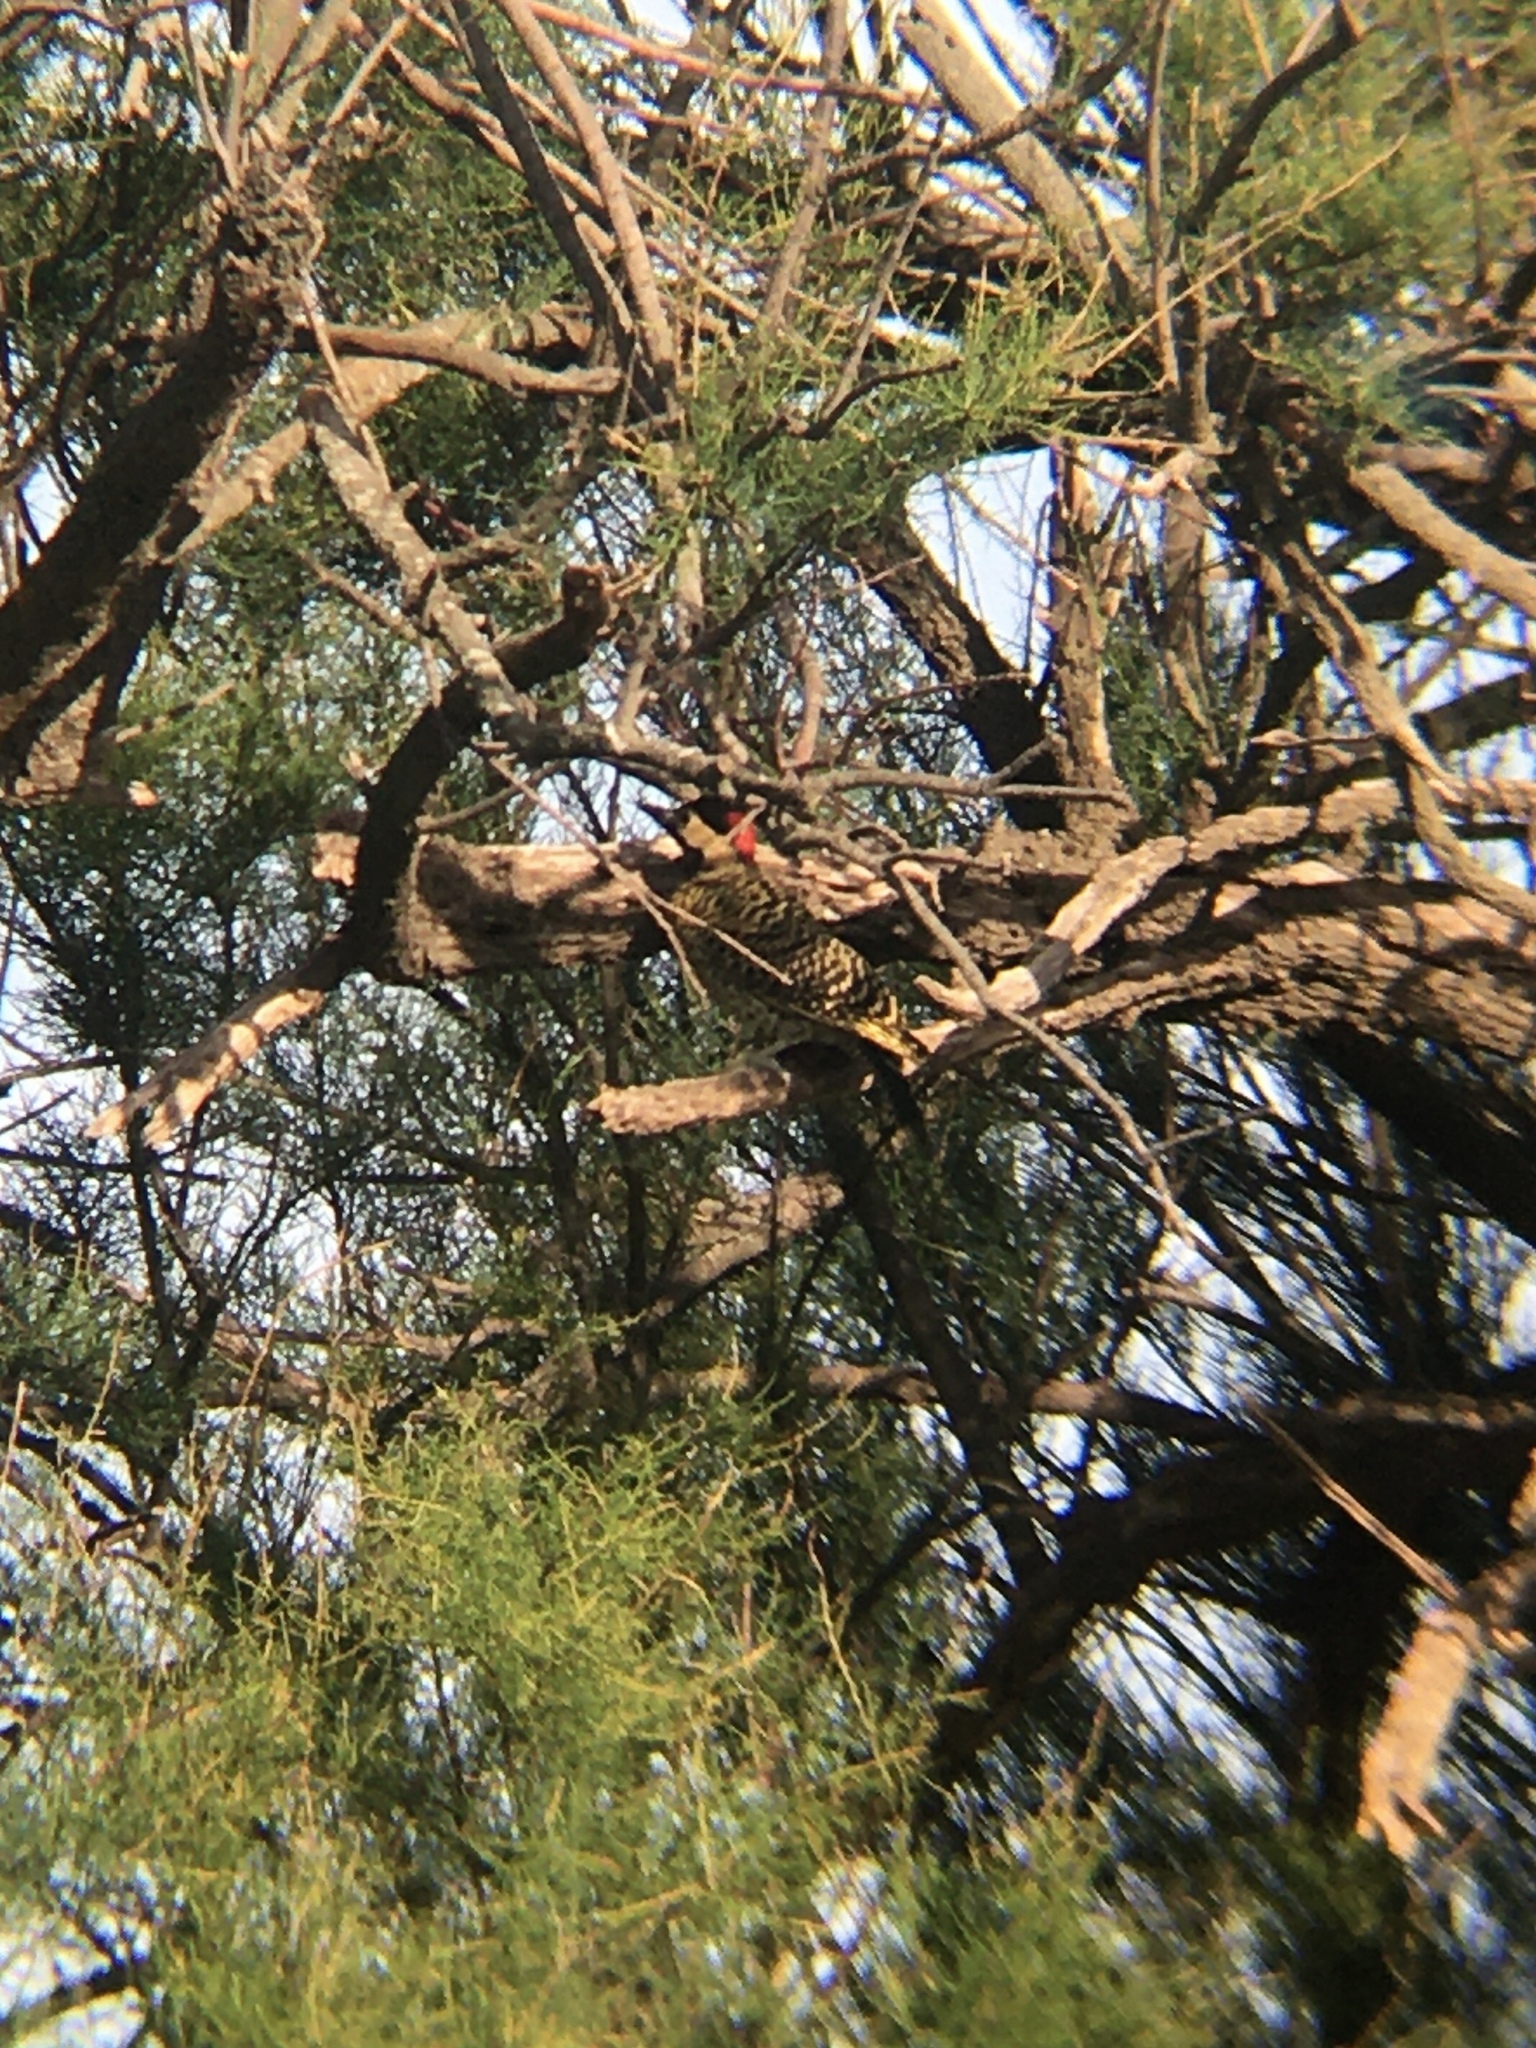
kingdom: Animalia
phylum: Chordata
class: Aves
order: Piciformes
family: Picidae
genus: Colaptes
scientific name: Colaptes melanochloros
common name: Green-barred woodpecker
